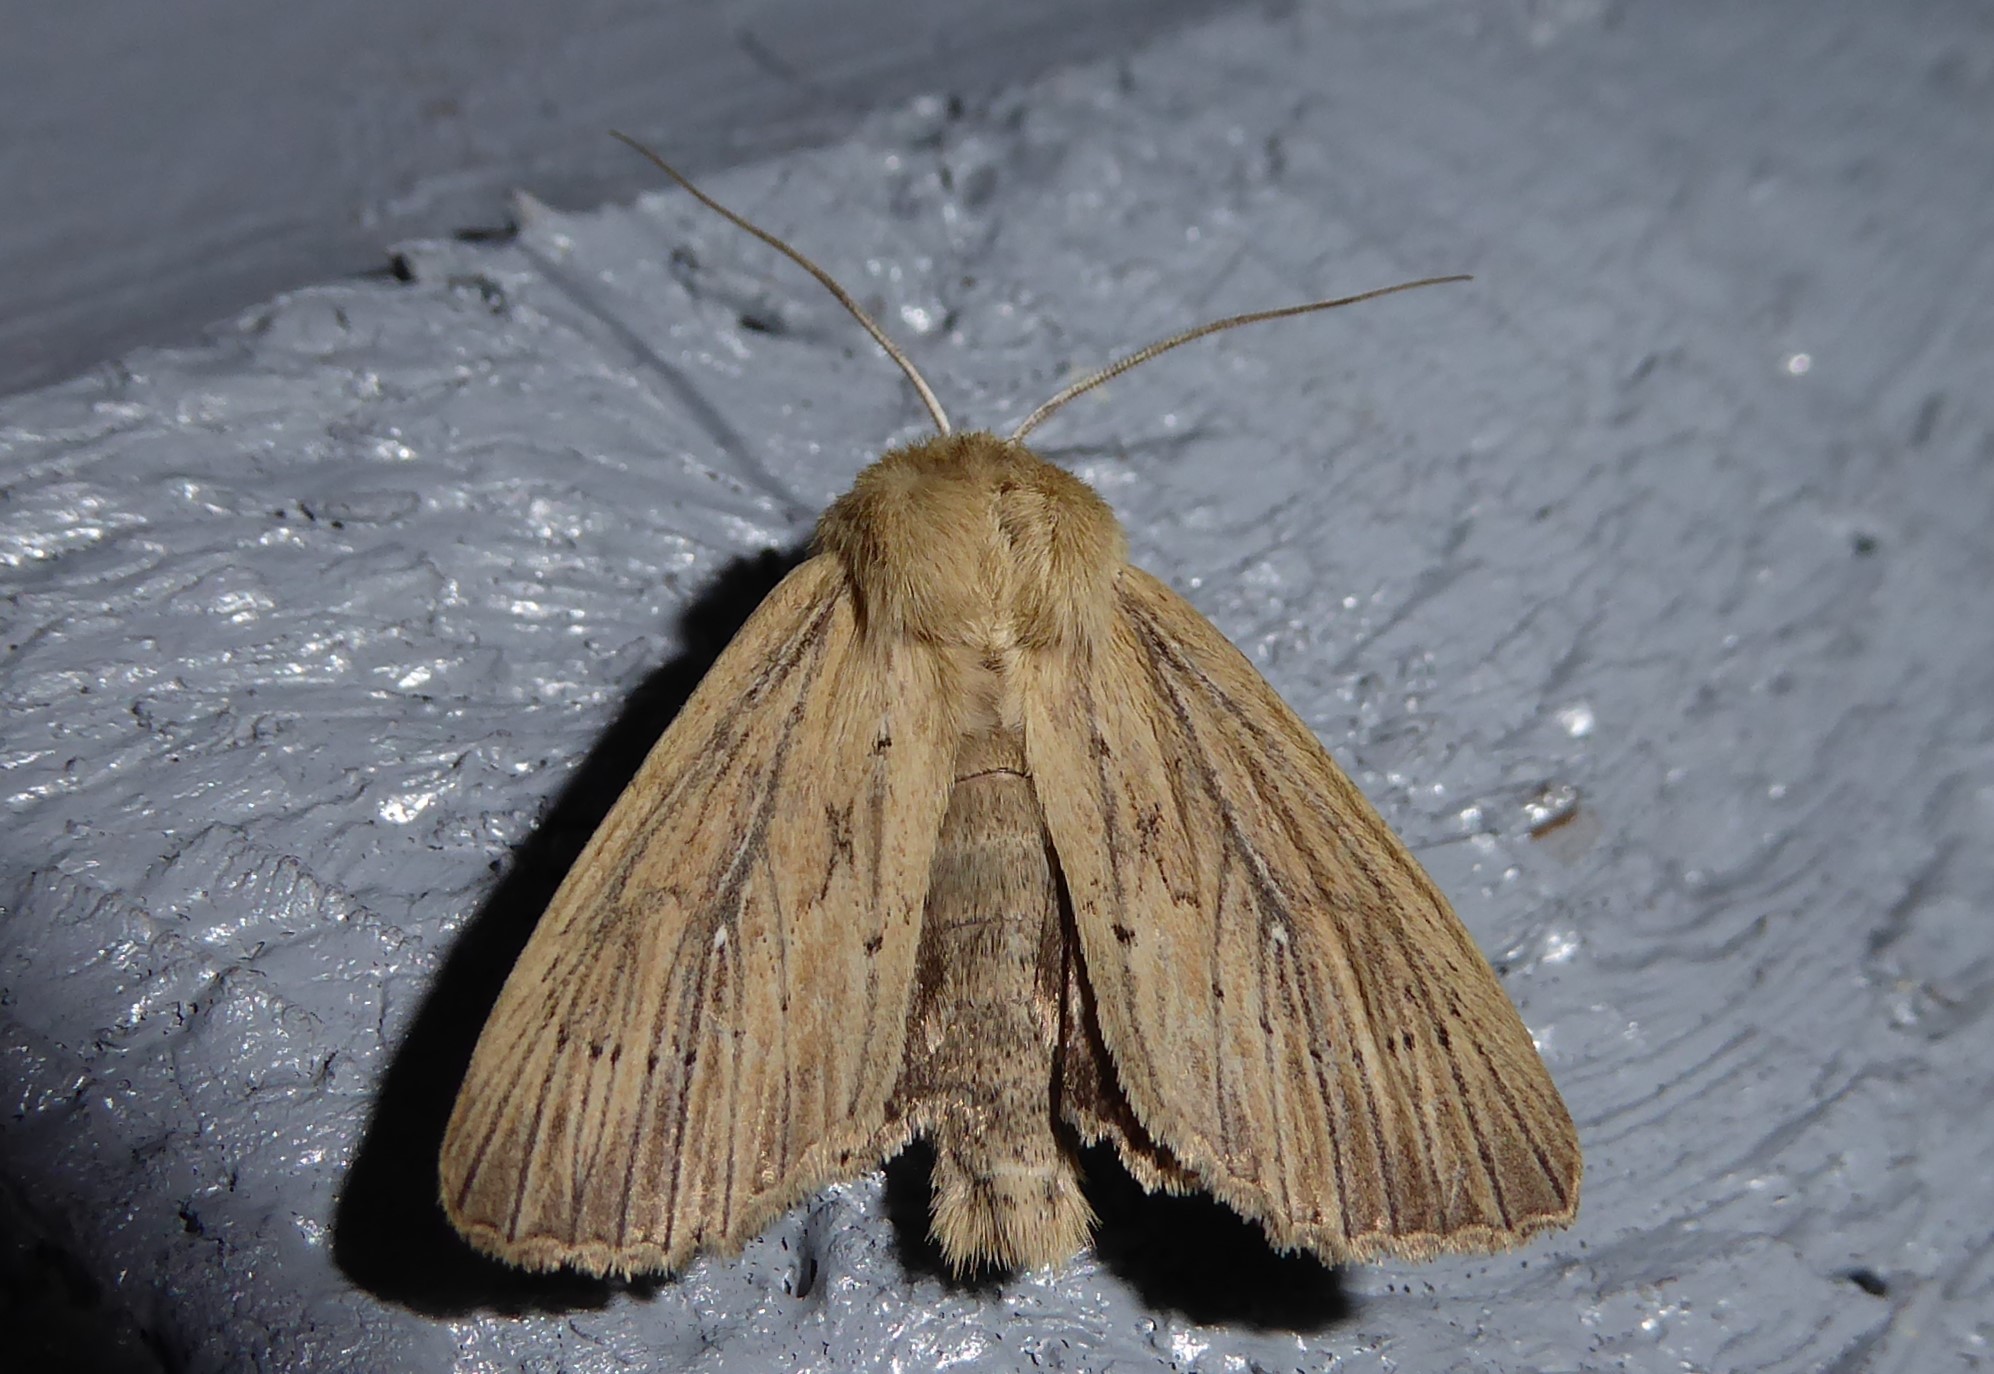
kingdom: Animalia
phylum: Arthropoda
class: Insecta
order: Lepidoptera
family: Noctuidae
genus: Ichneutica
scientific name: Ichneutica arotis
